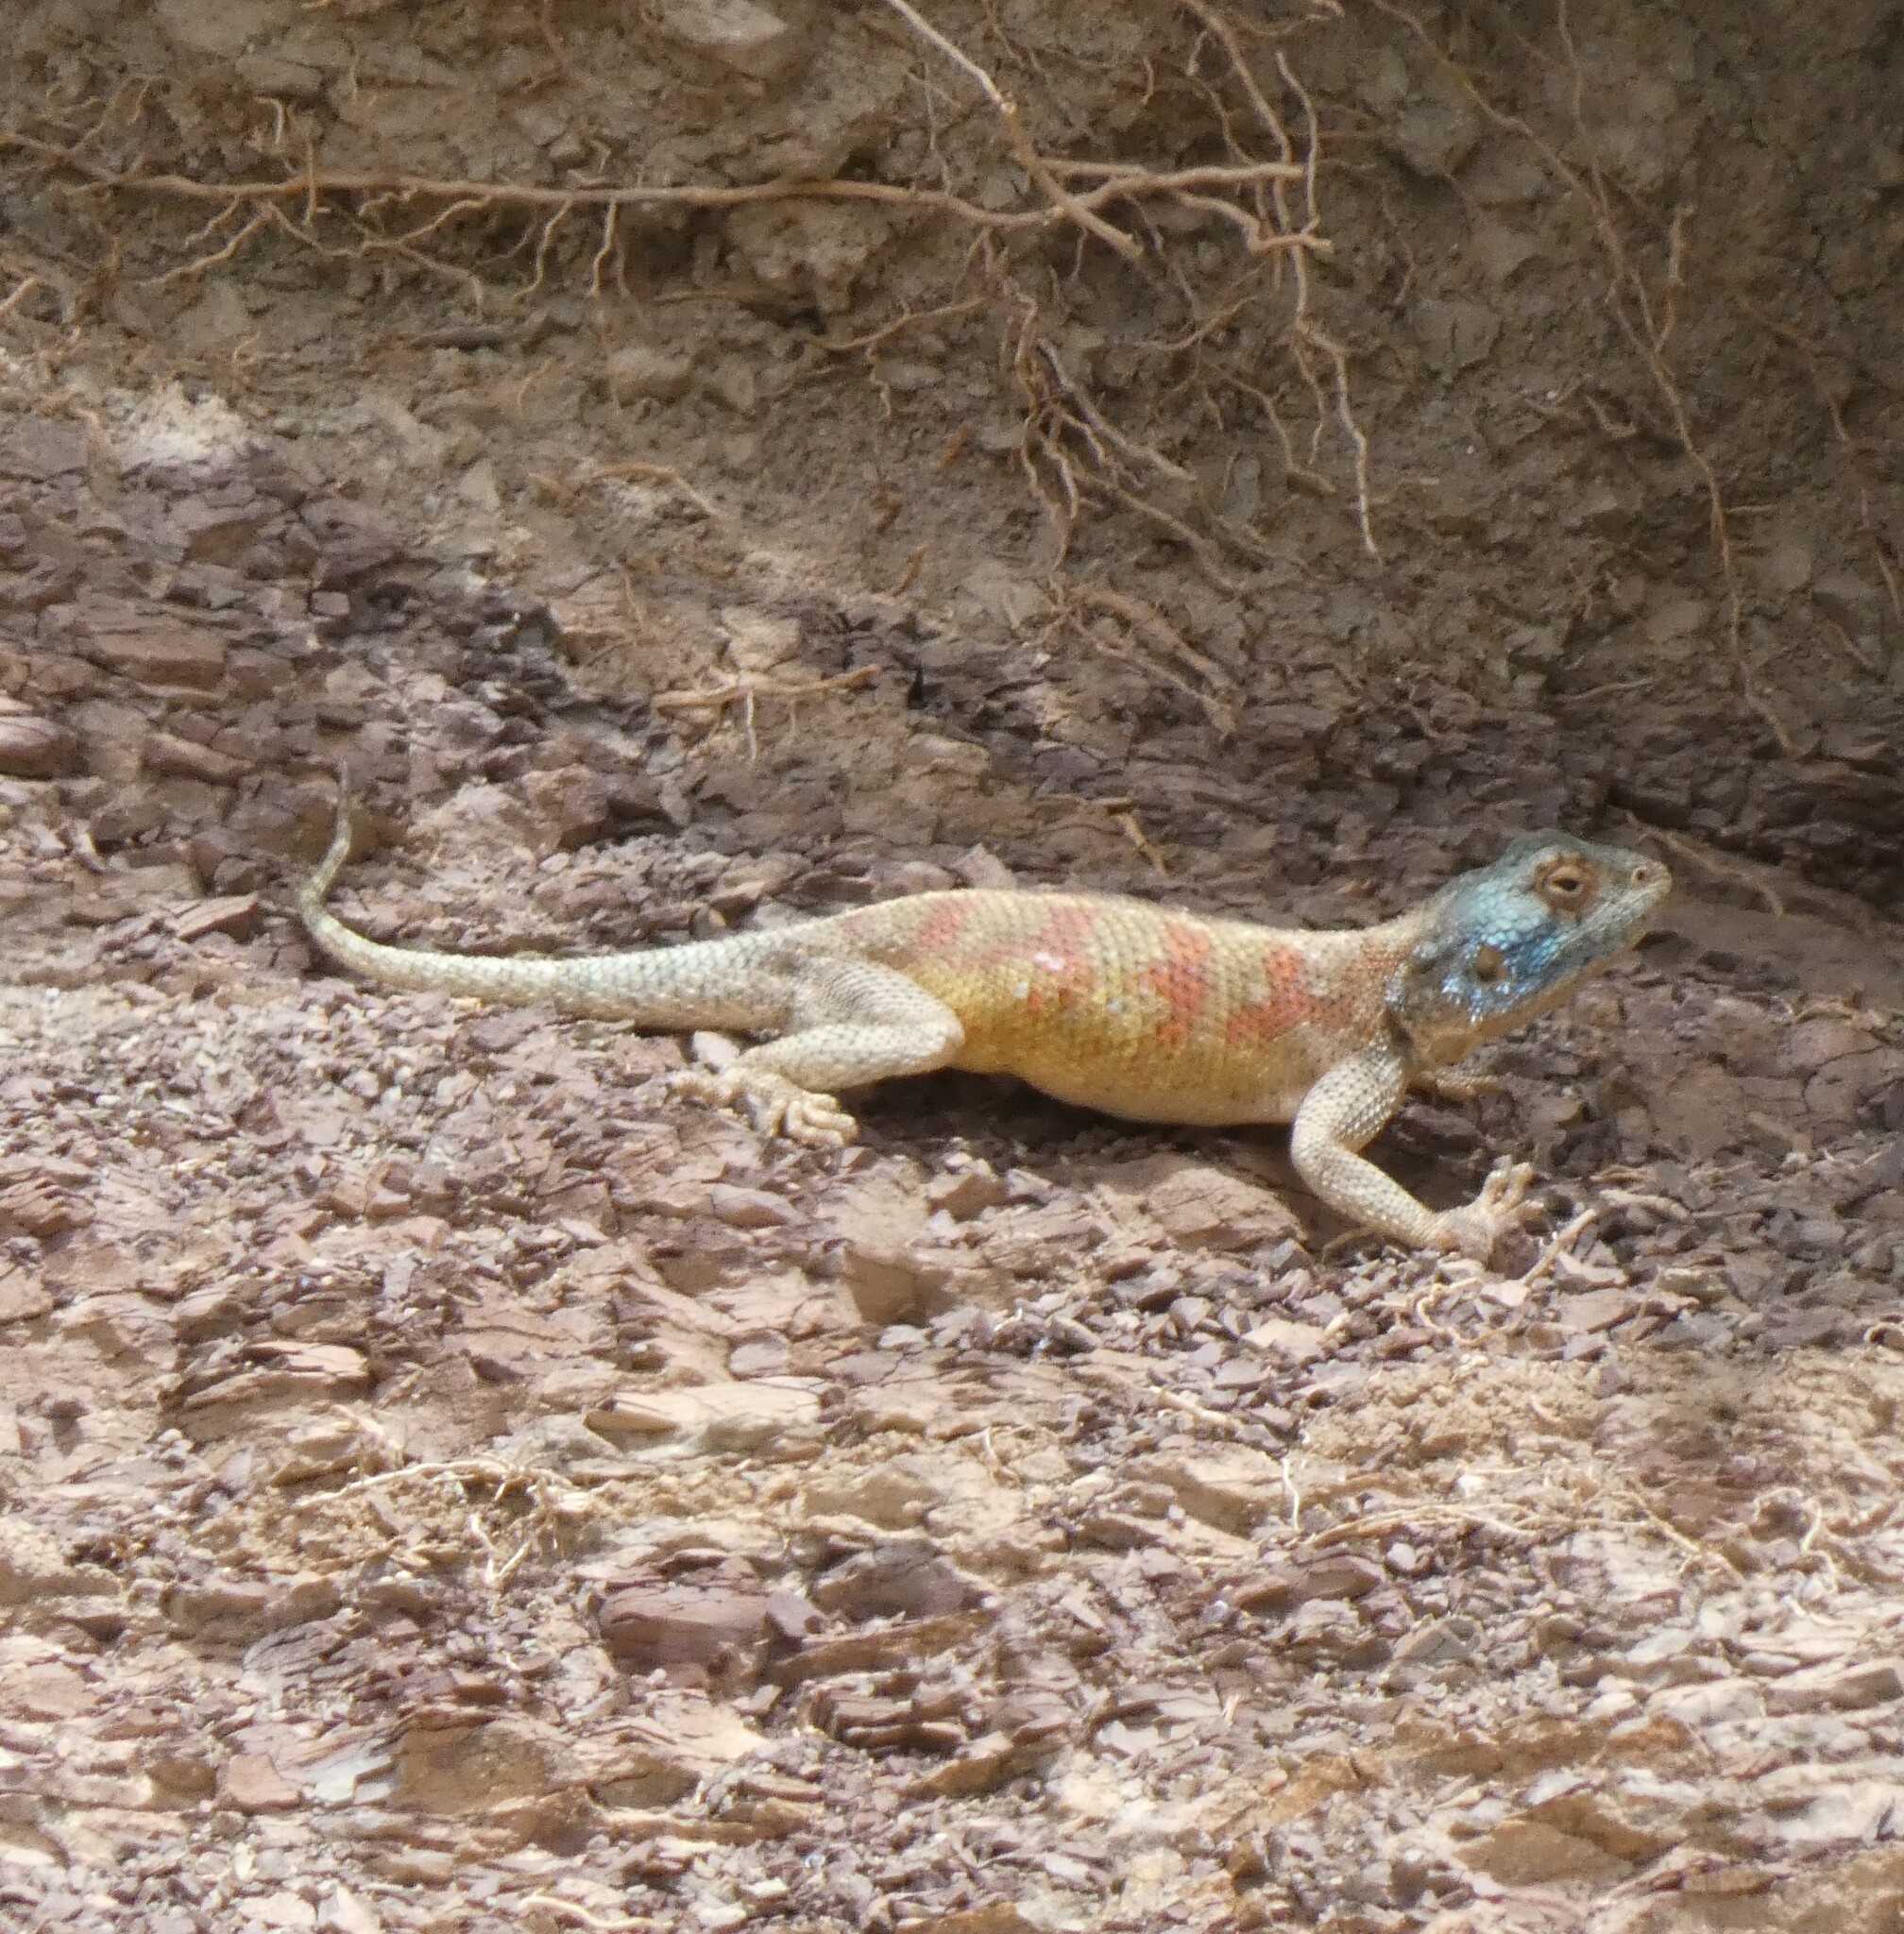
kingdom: Animalia
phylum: Chordata
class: Squamata
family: Agamidae
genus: Agama
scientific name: Agama impalearis
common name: Bibron's agama
